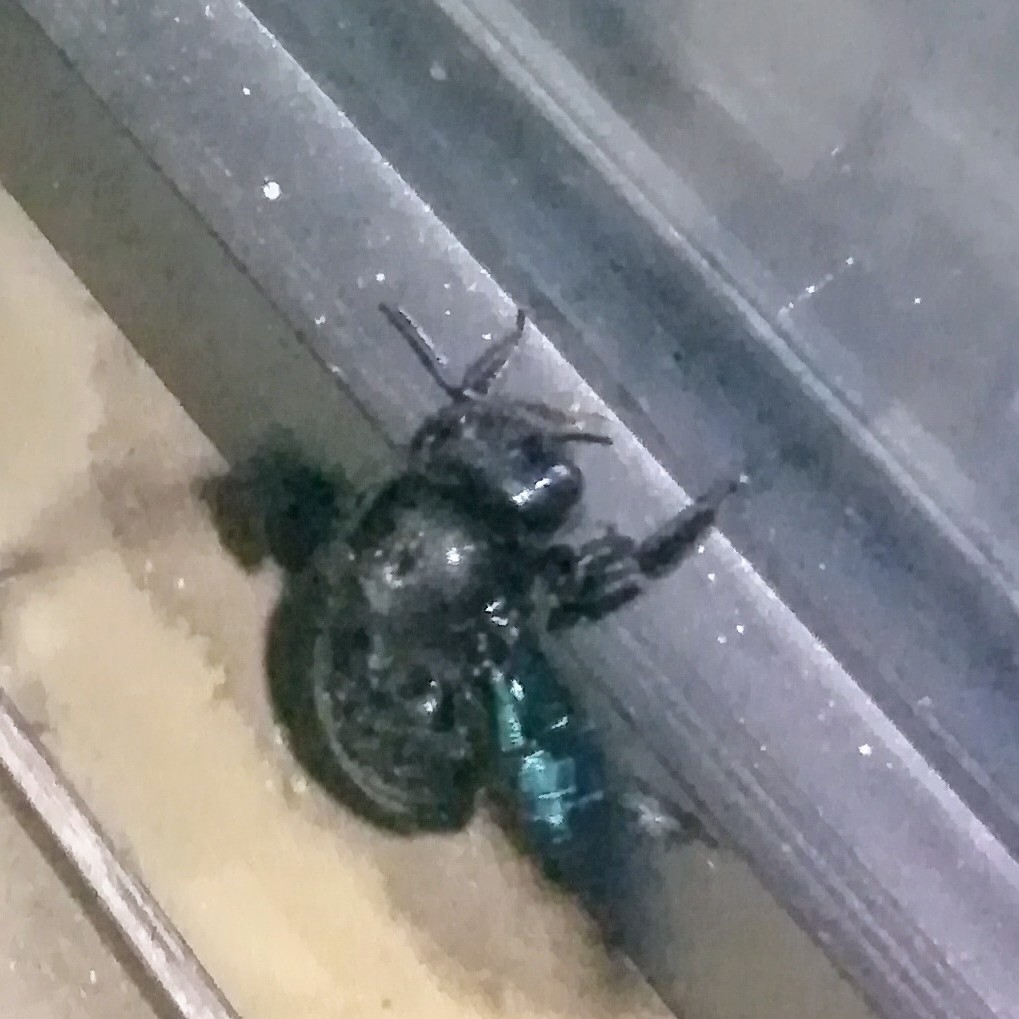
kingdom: Animalia
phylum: Arthropoda
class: Insecta
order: Hymenoptera
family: Apidae
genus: Xylocopa
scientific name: Xylocopa violacea
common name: Violet carpenter bee
